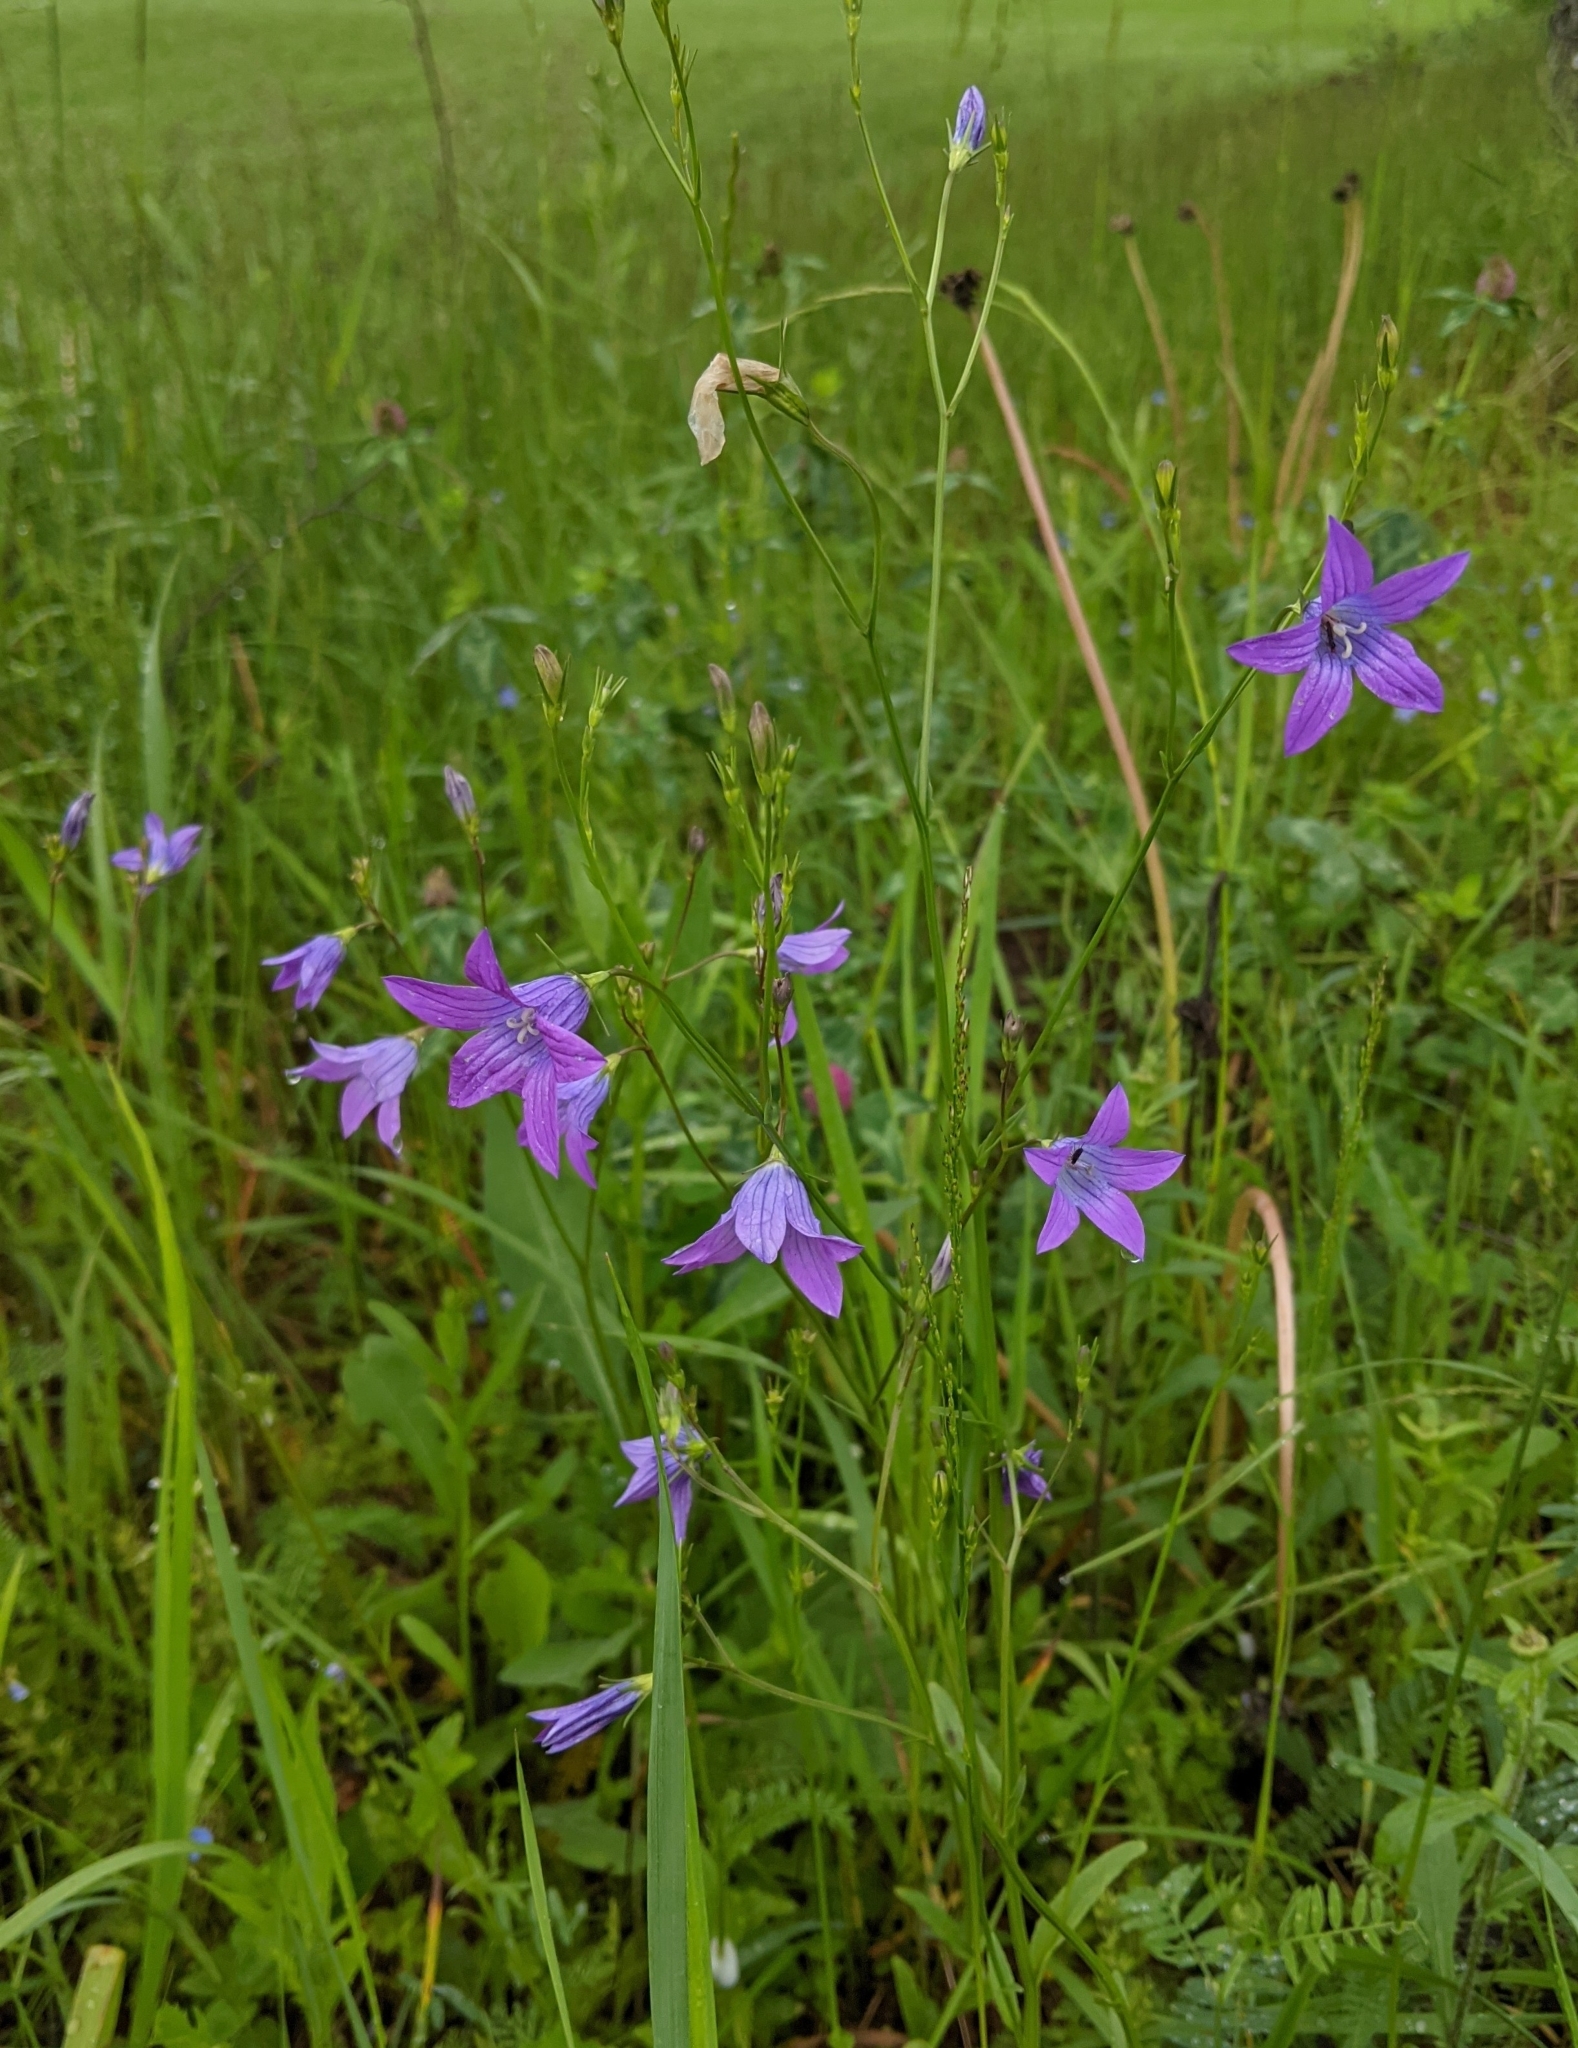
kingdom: Plantae
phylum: Tracheophyta
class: Magnoliopsida
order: Asterales
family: Campanulaceae
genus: Campanula
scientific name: Campanula patula
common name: Spreading bellflower
